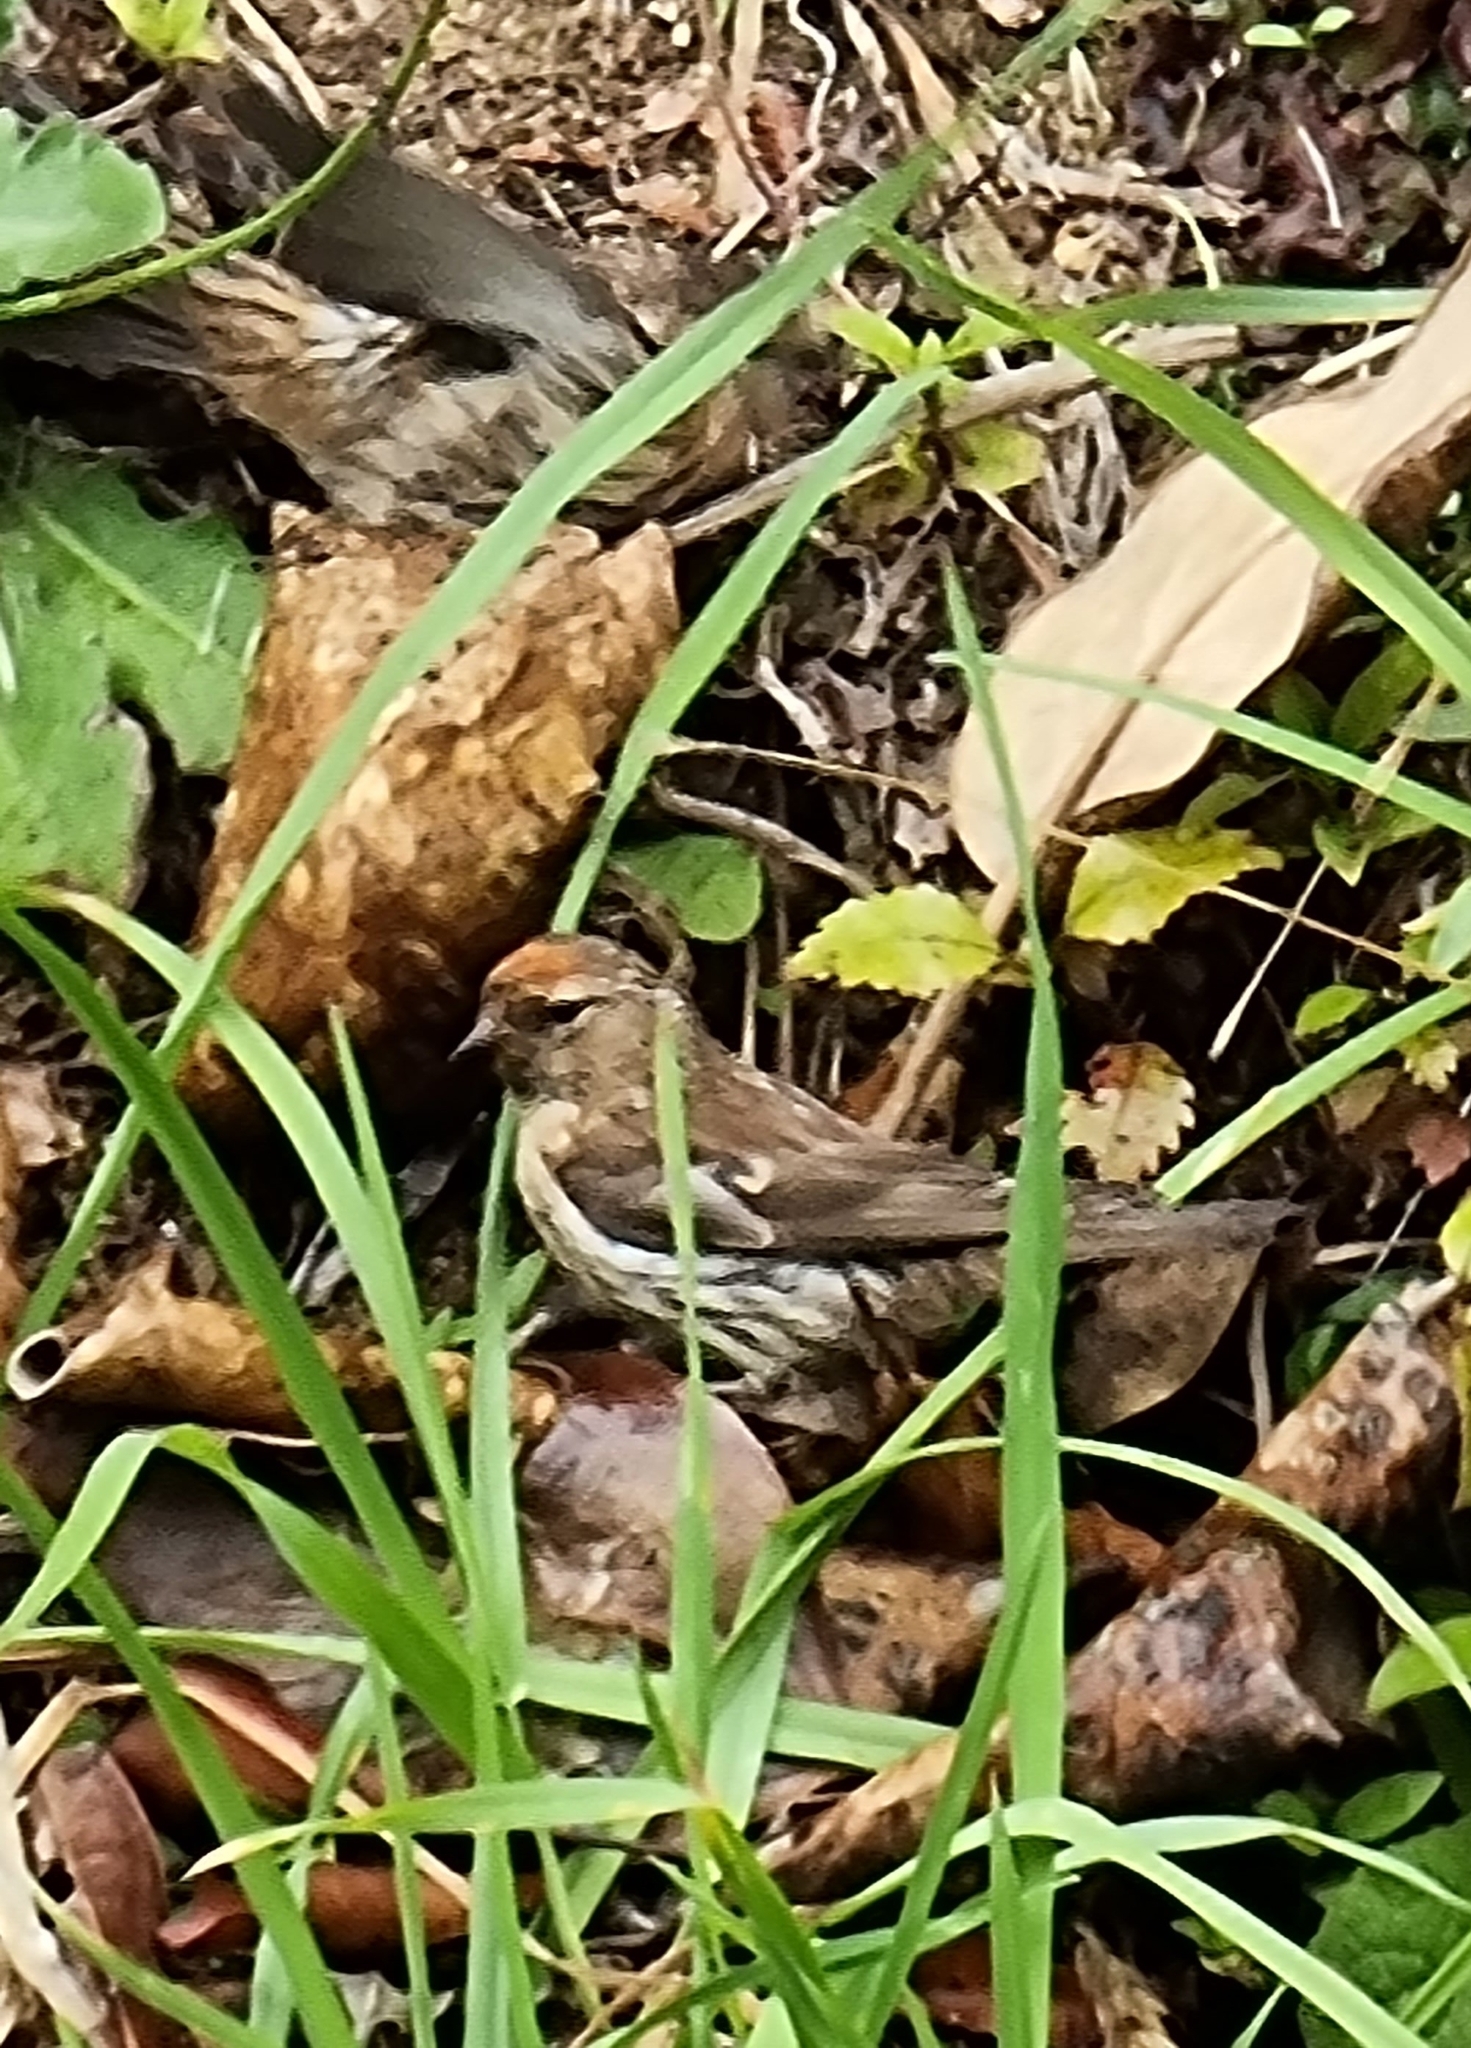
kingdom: Animalia
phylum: Chordata
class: Aves
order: Passeriformes
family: Fringillidae
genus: Acanthis
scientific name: Acanthis flammea
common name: Common redpoll
